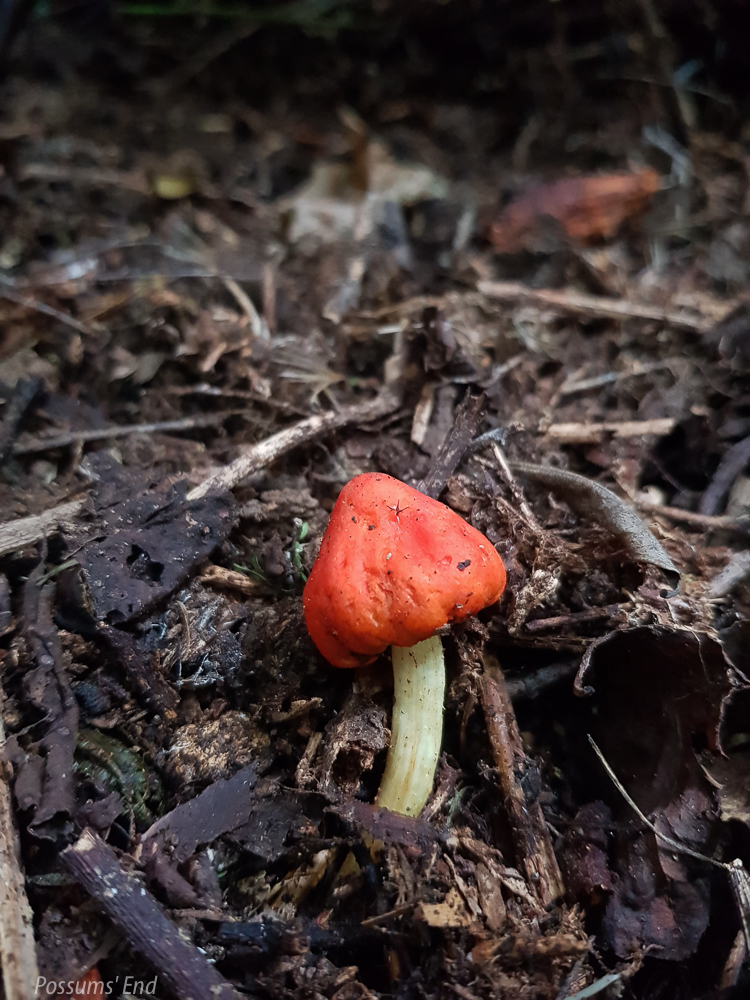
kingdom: Fungi
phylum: Basidiomycota
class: Agaricomycetes
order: Agaricales
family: Strophariaceae
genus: Leratiomyces
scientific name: Leratiomyces erythrocephalus
